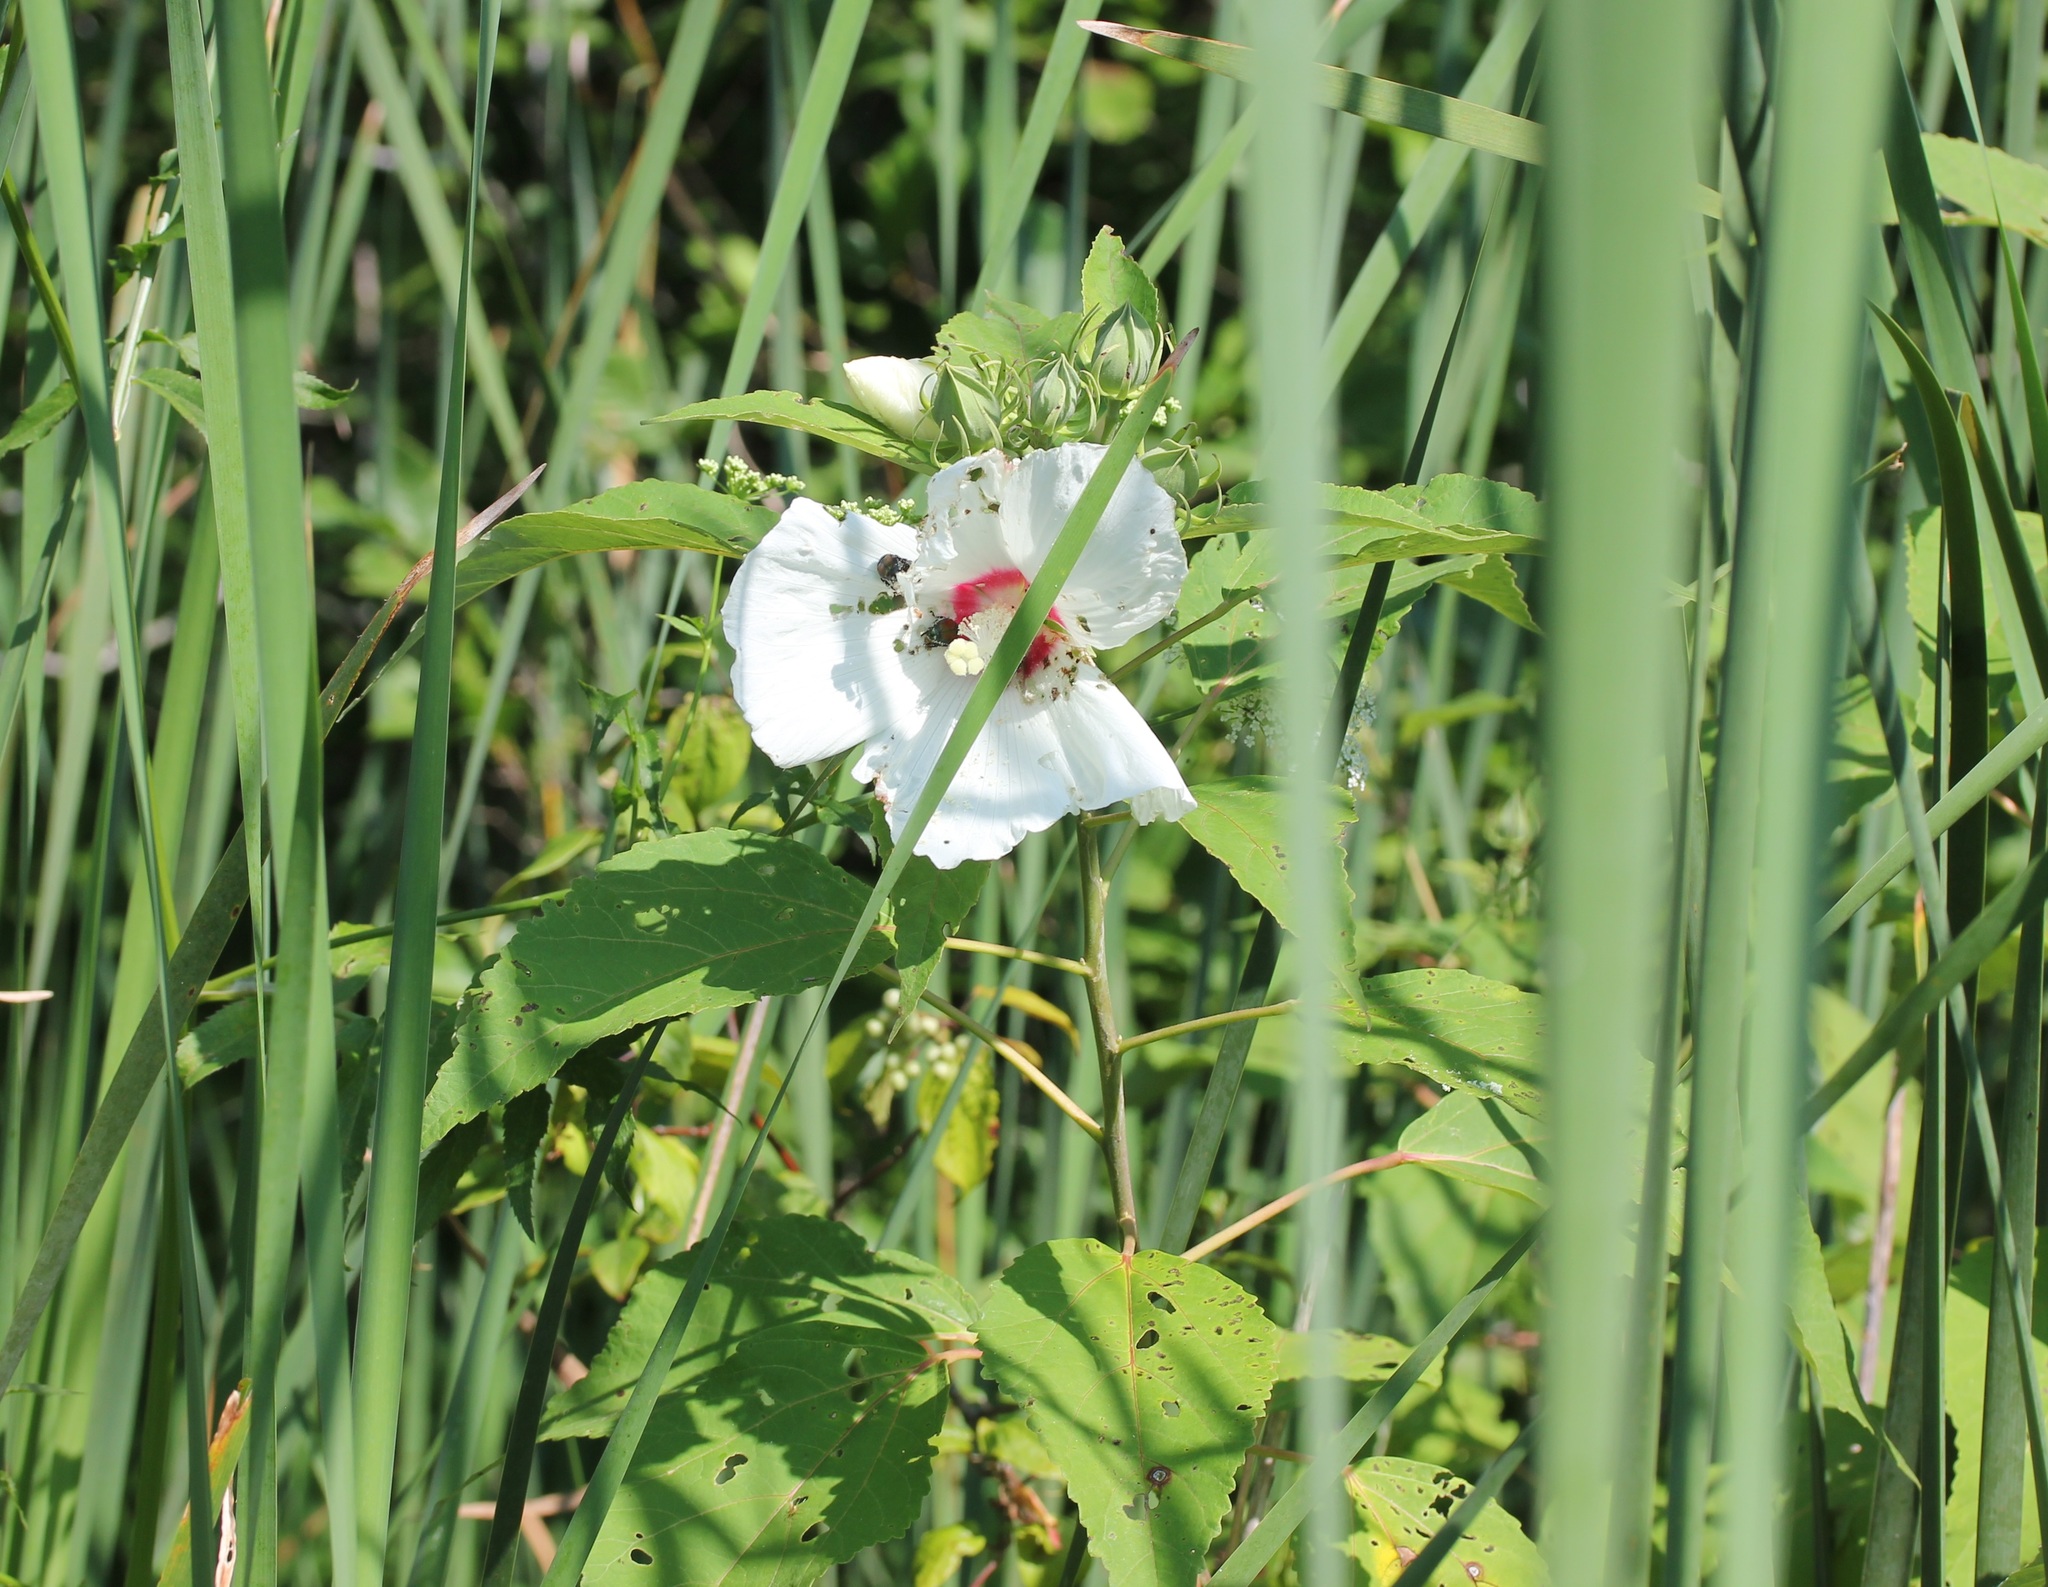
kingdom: Plantae
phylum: Tracheophyta
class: Magnoliopsida
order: Malvales
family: Malvaceae
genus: Hibiscus
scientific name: Hibiscus moscheutos
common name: Common rose-mallow
